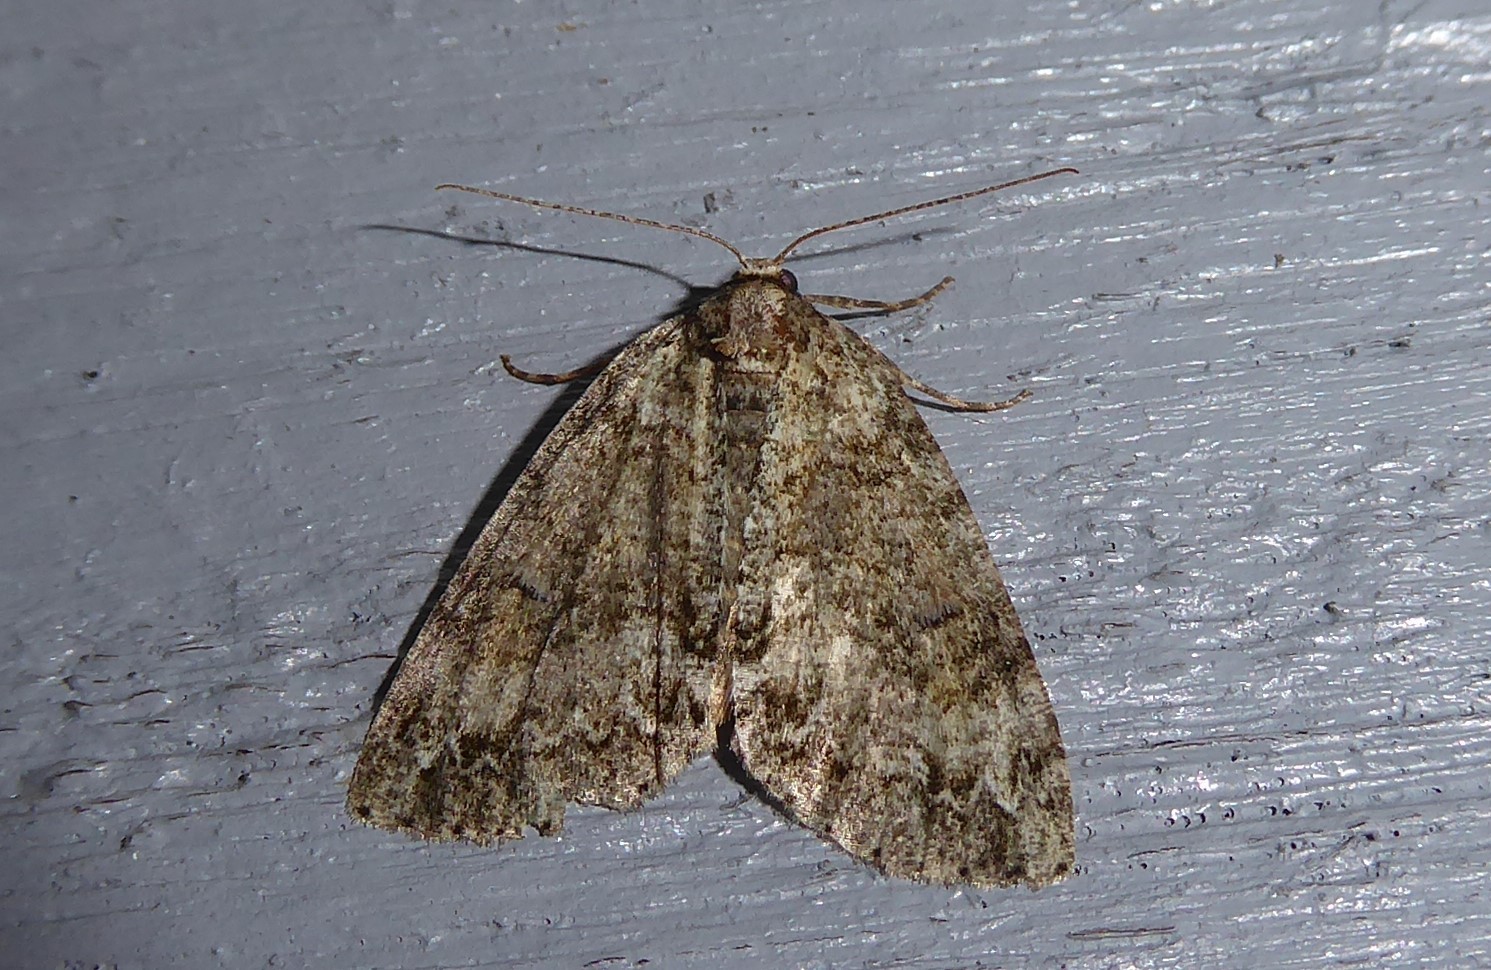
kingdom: Animalia
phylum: Arthropoda
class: Insecta
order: Lepidoptera
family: Geometridae
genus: Pseudocoremia
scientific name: Pseudocoremia suavis
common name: Common forest looper
